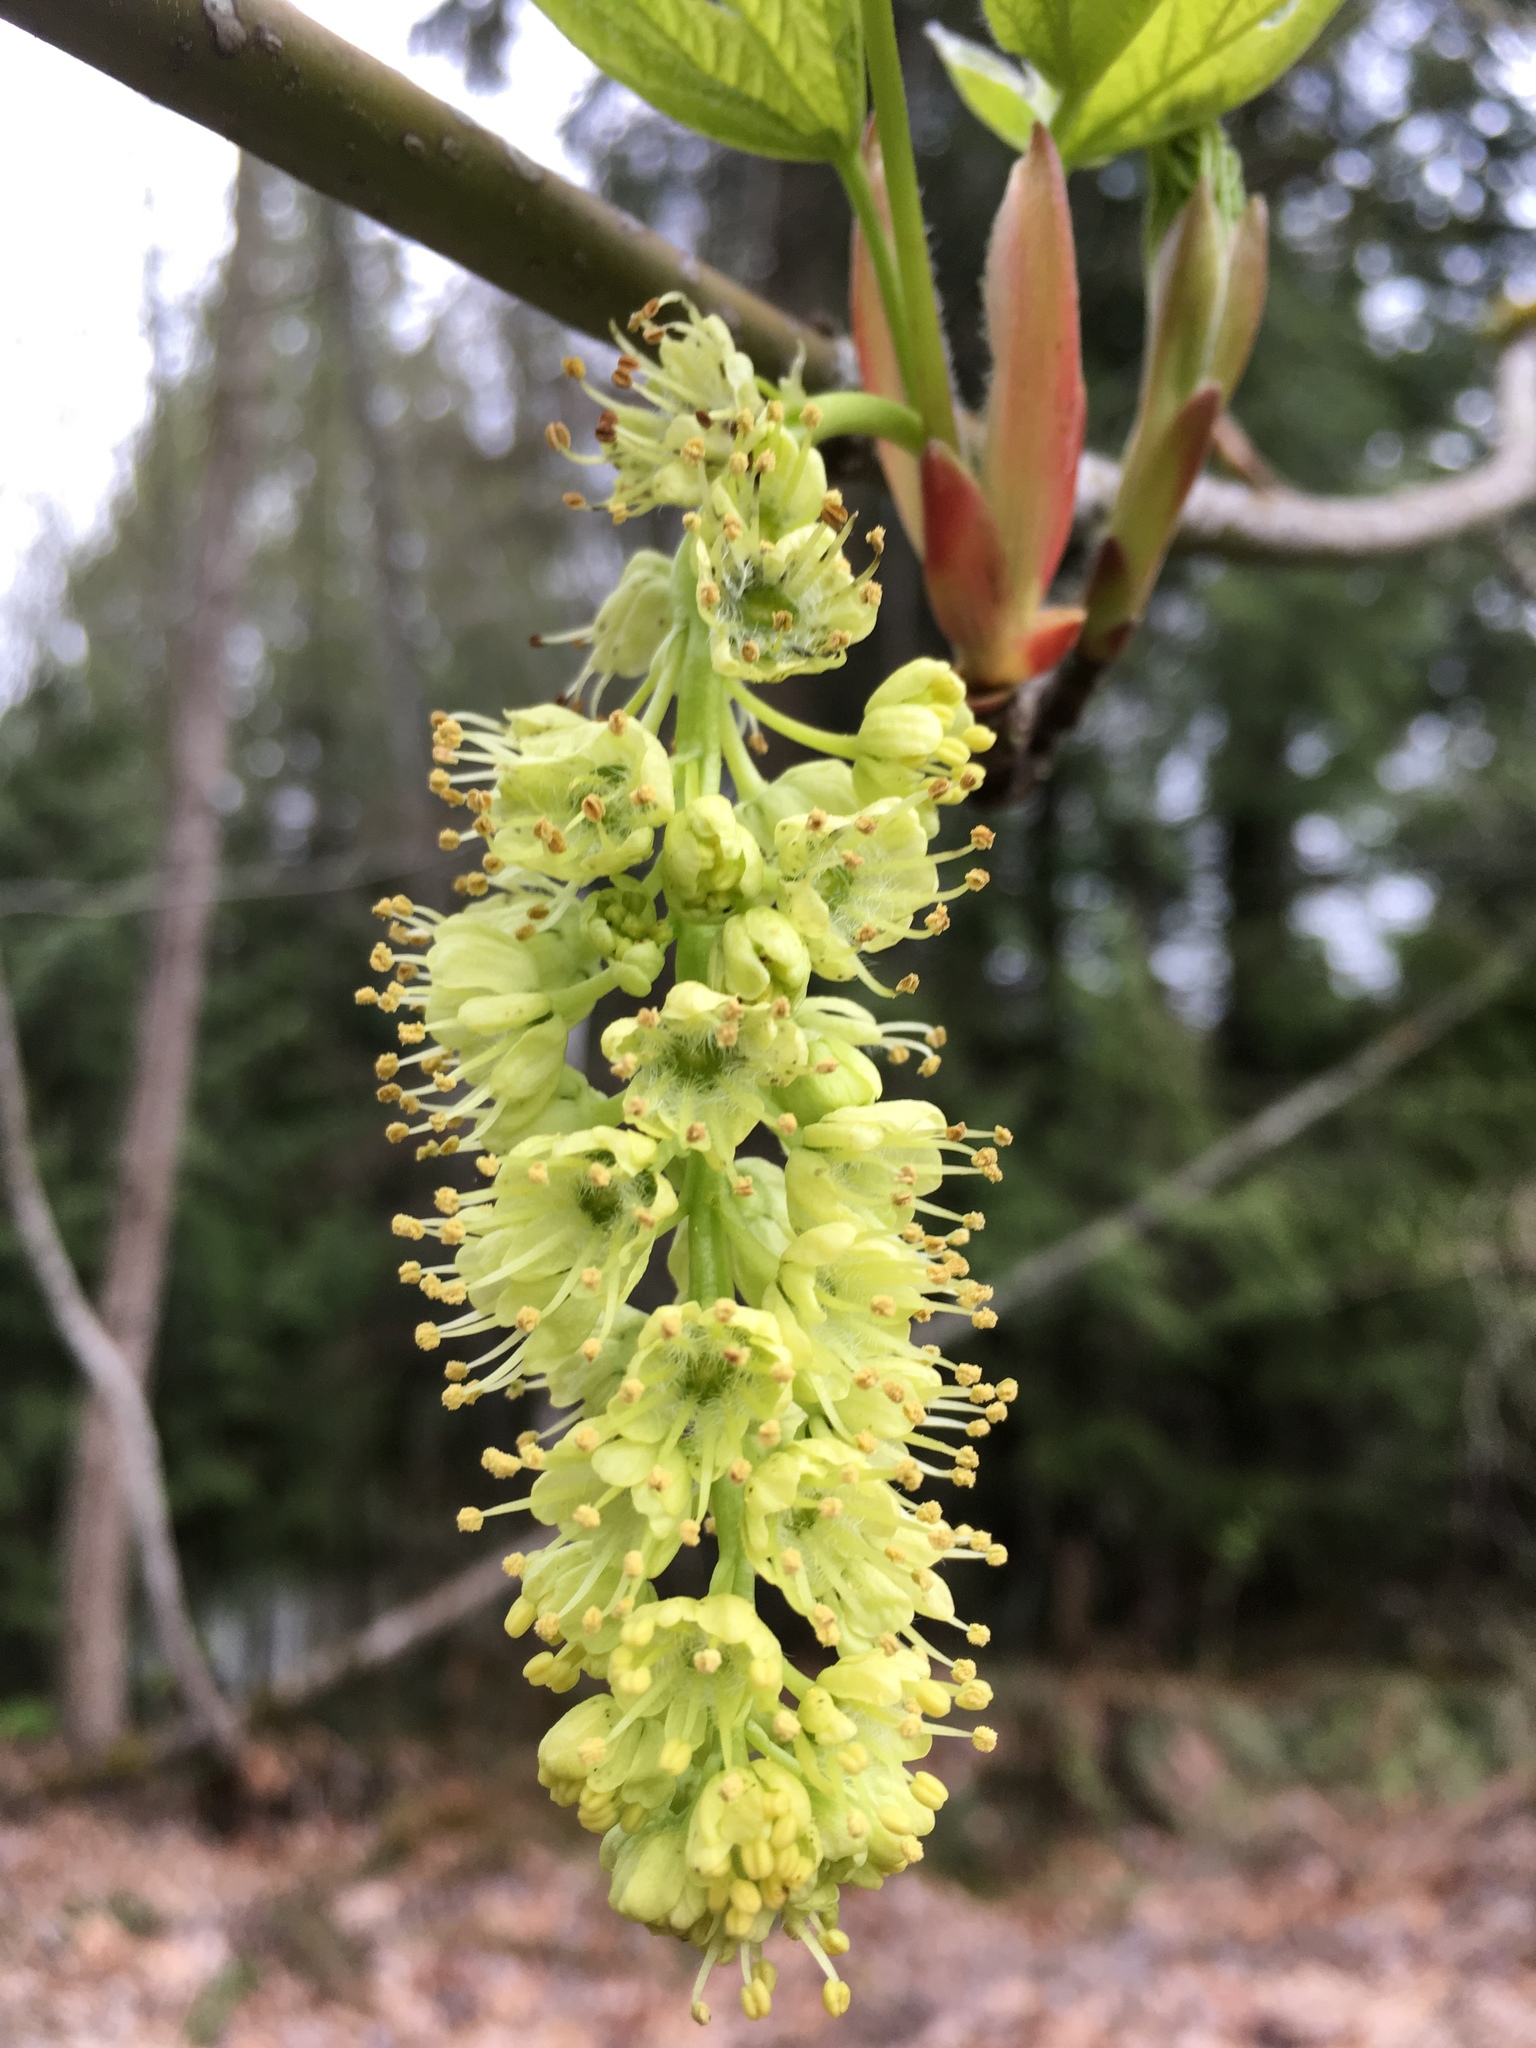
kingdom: Plantae
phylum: Tracheophyta
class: Magnoliopsida
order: Sapindales
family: Sapindaceae
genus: Acer
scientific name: Acer macrophyllum
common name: Oregon maple
